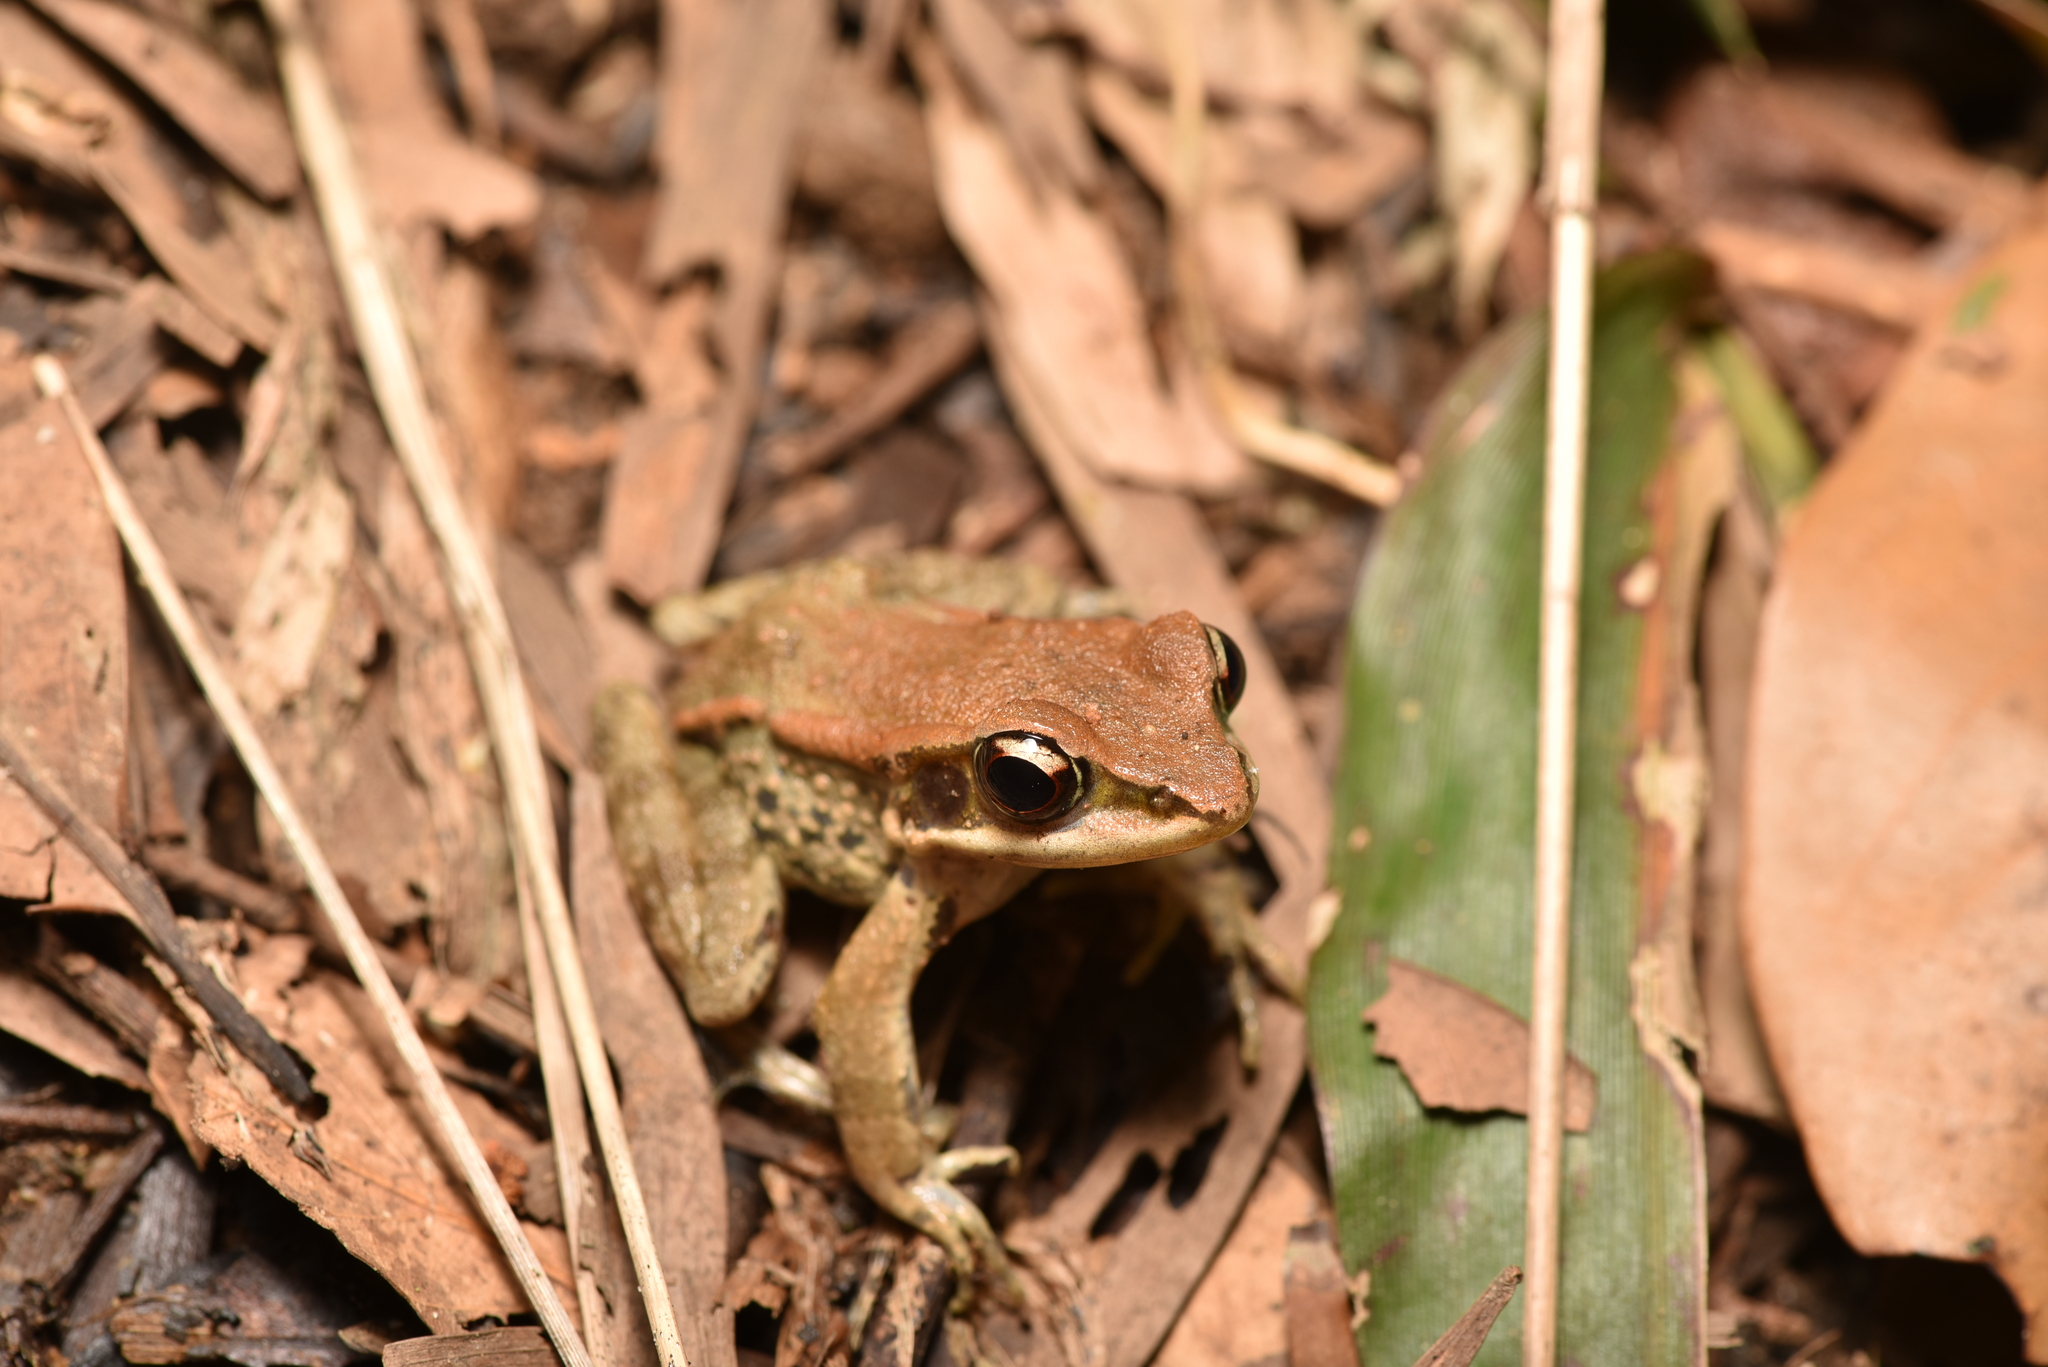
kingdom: Animalia
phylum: Chordata
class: Amphibia
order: Anura
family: Ranidae
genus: Hylarana
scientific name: Hylarana latouchii
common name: Broad-folded frog
